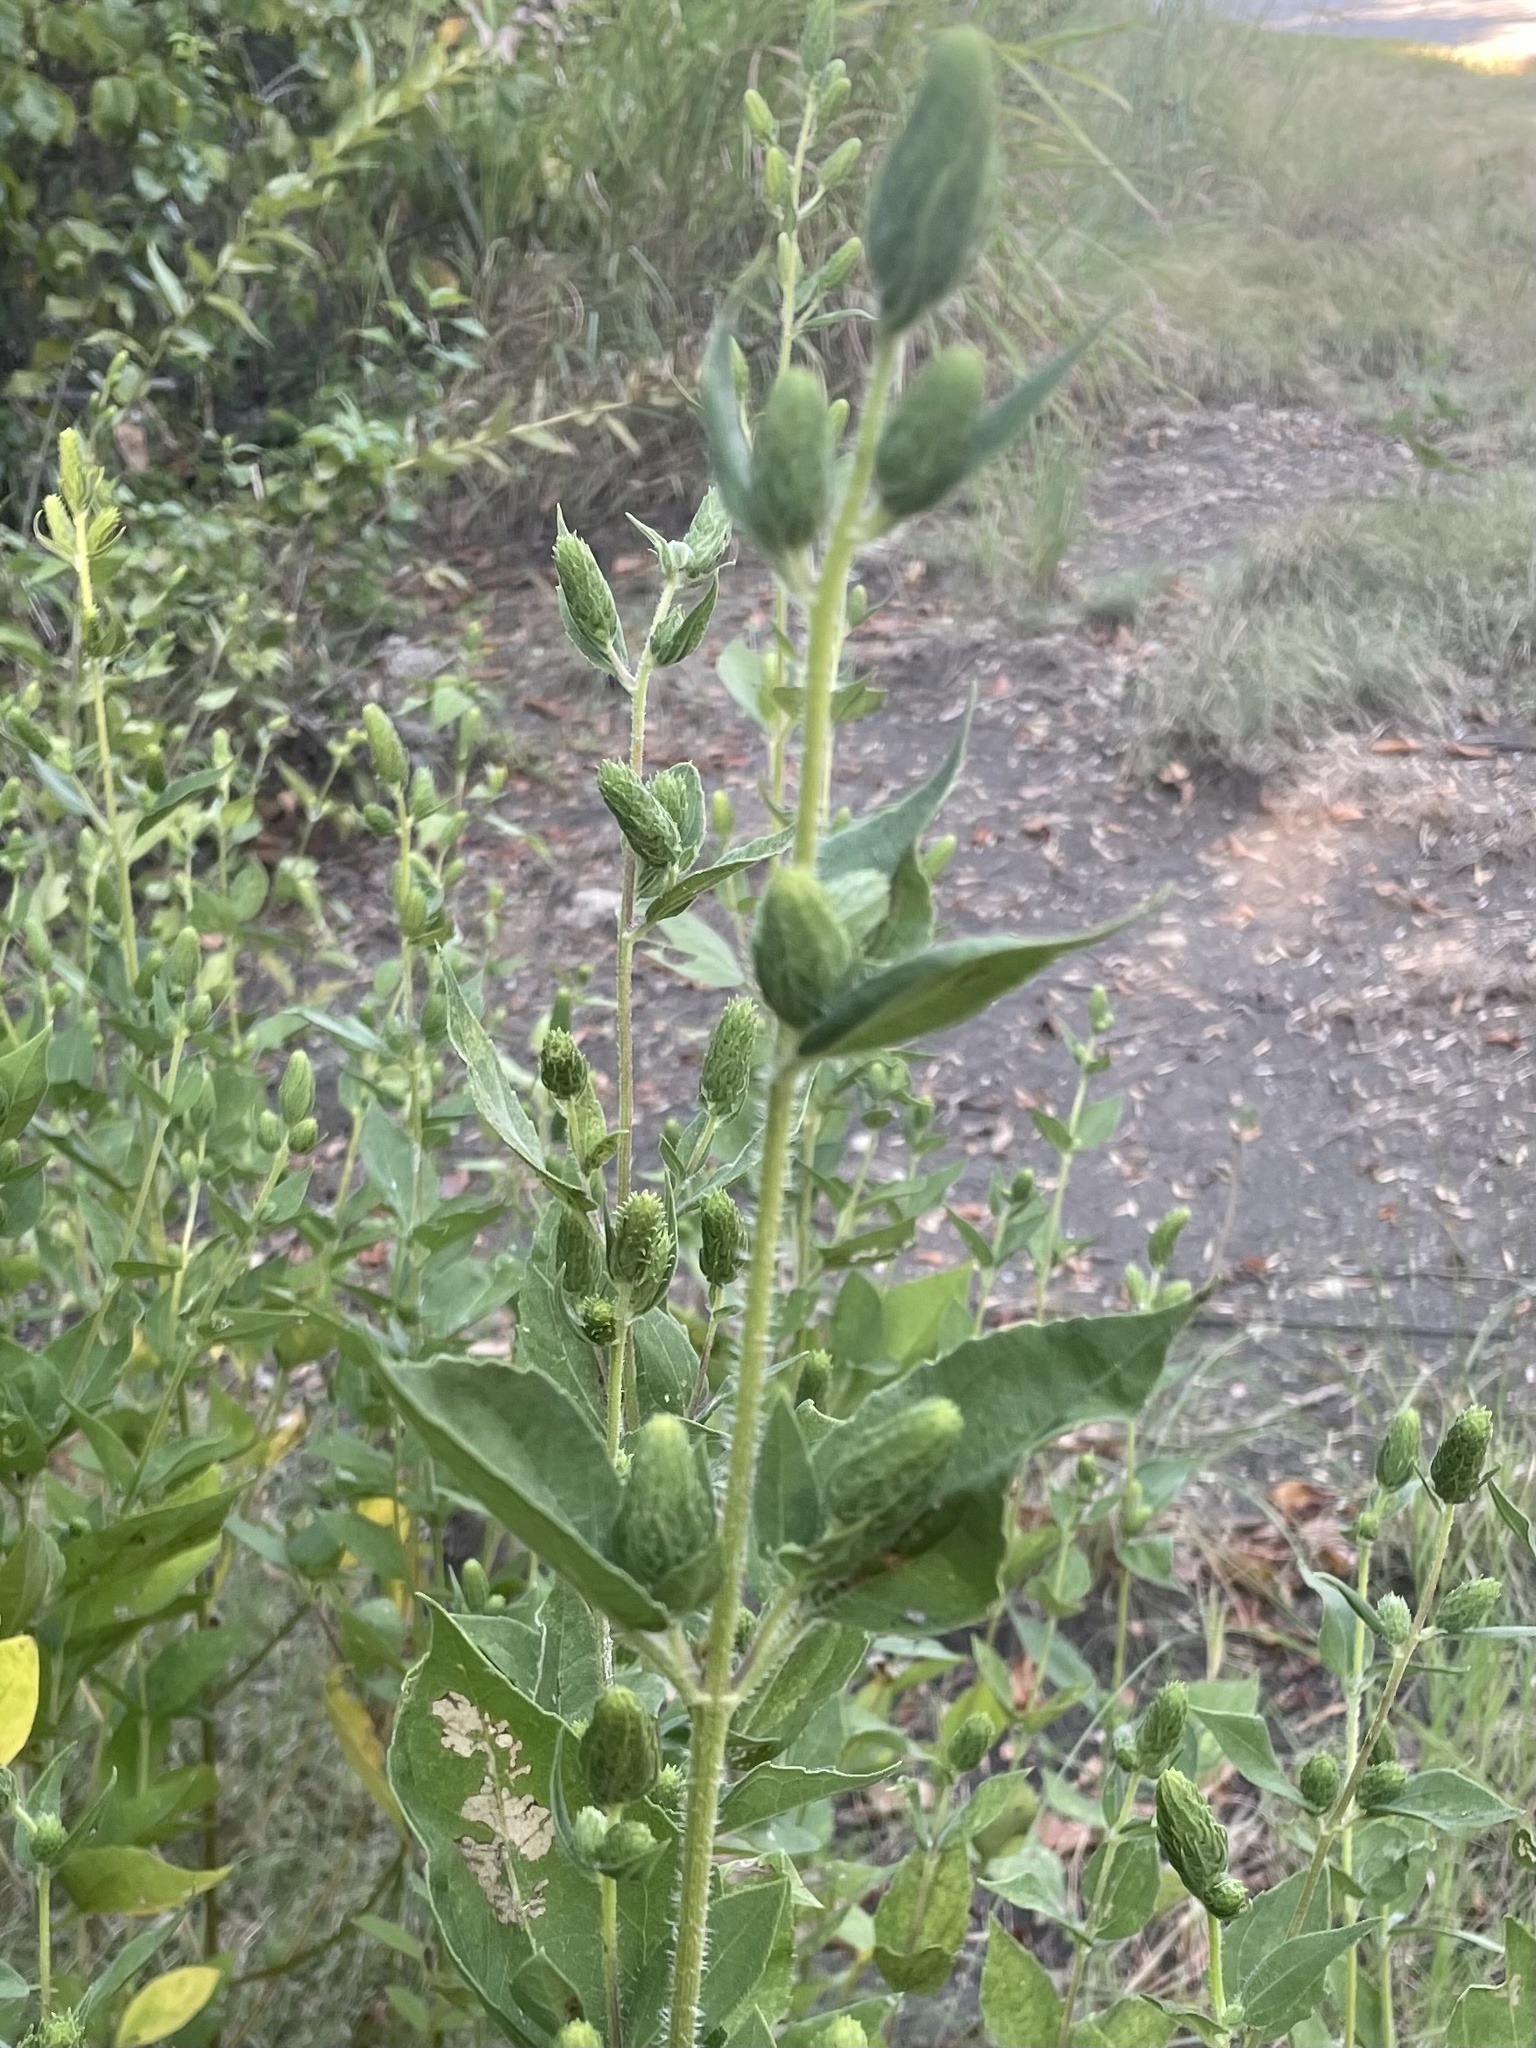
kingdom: Plantae
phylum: Tracheophyta
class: Magnoliopsida
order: Asterales
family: Asteraceae
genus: Iva
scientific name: Iva annua
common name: Marsh-elder
